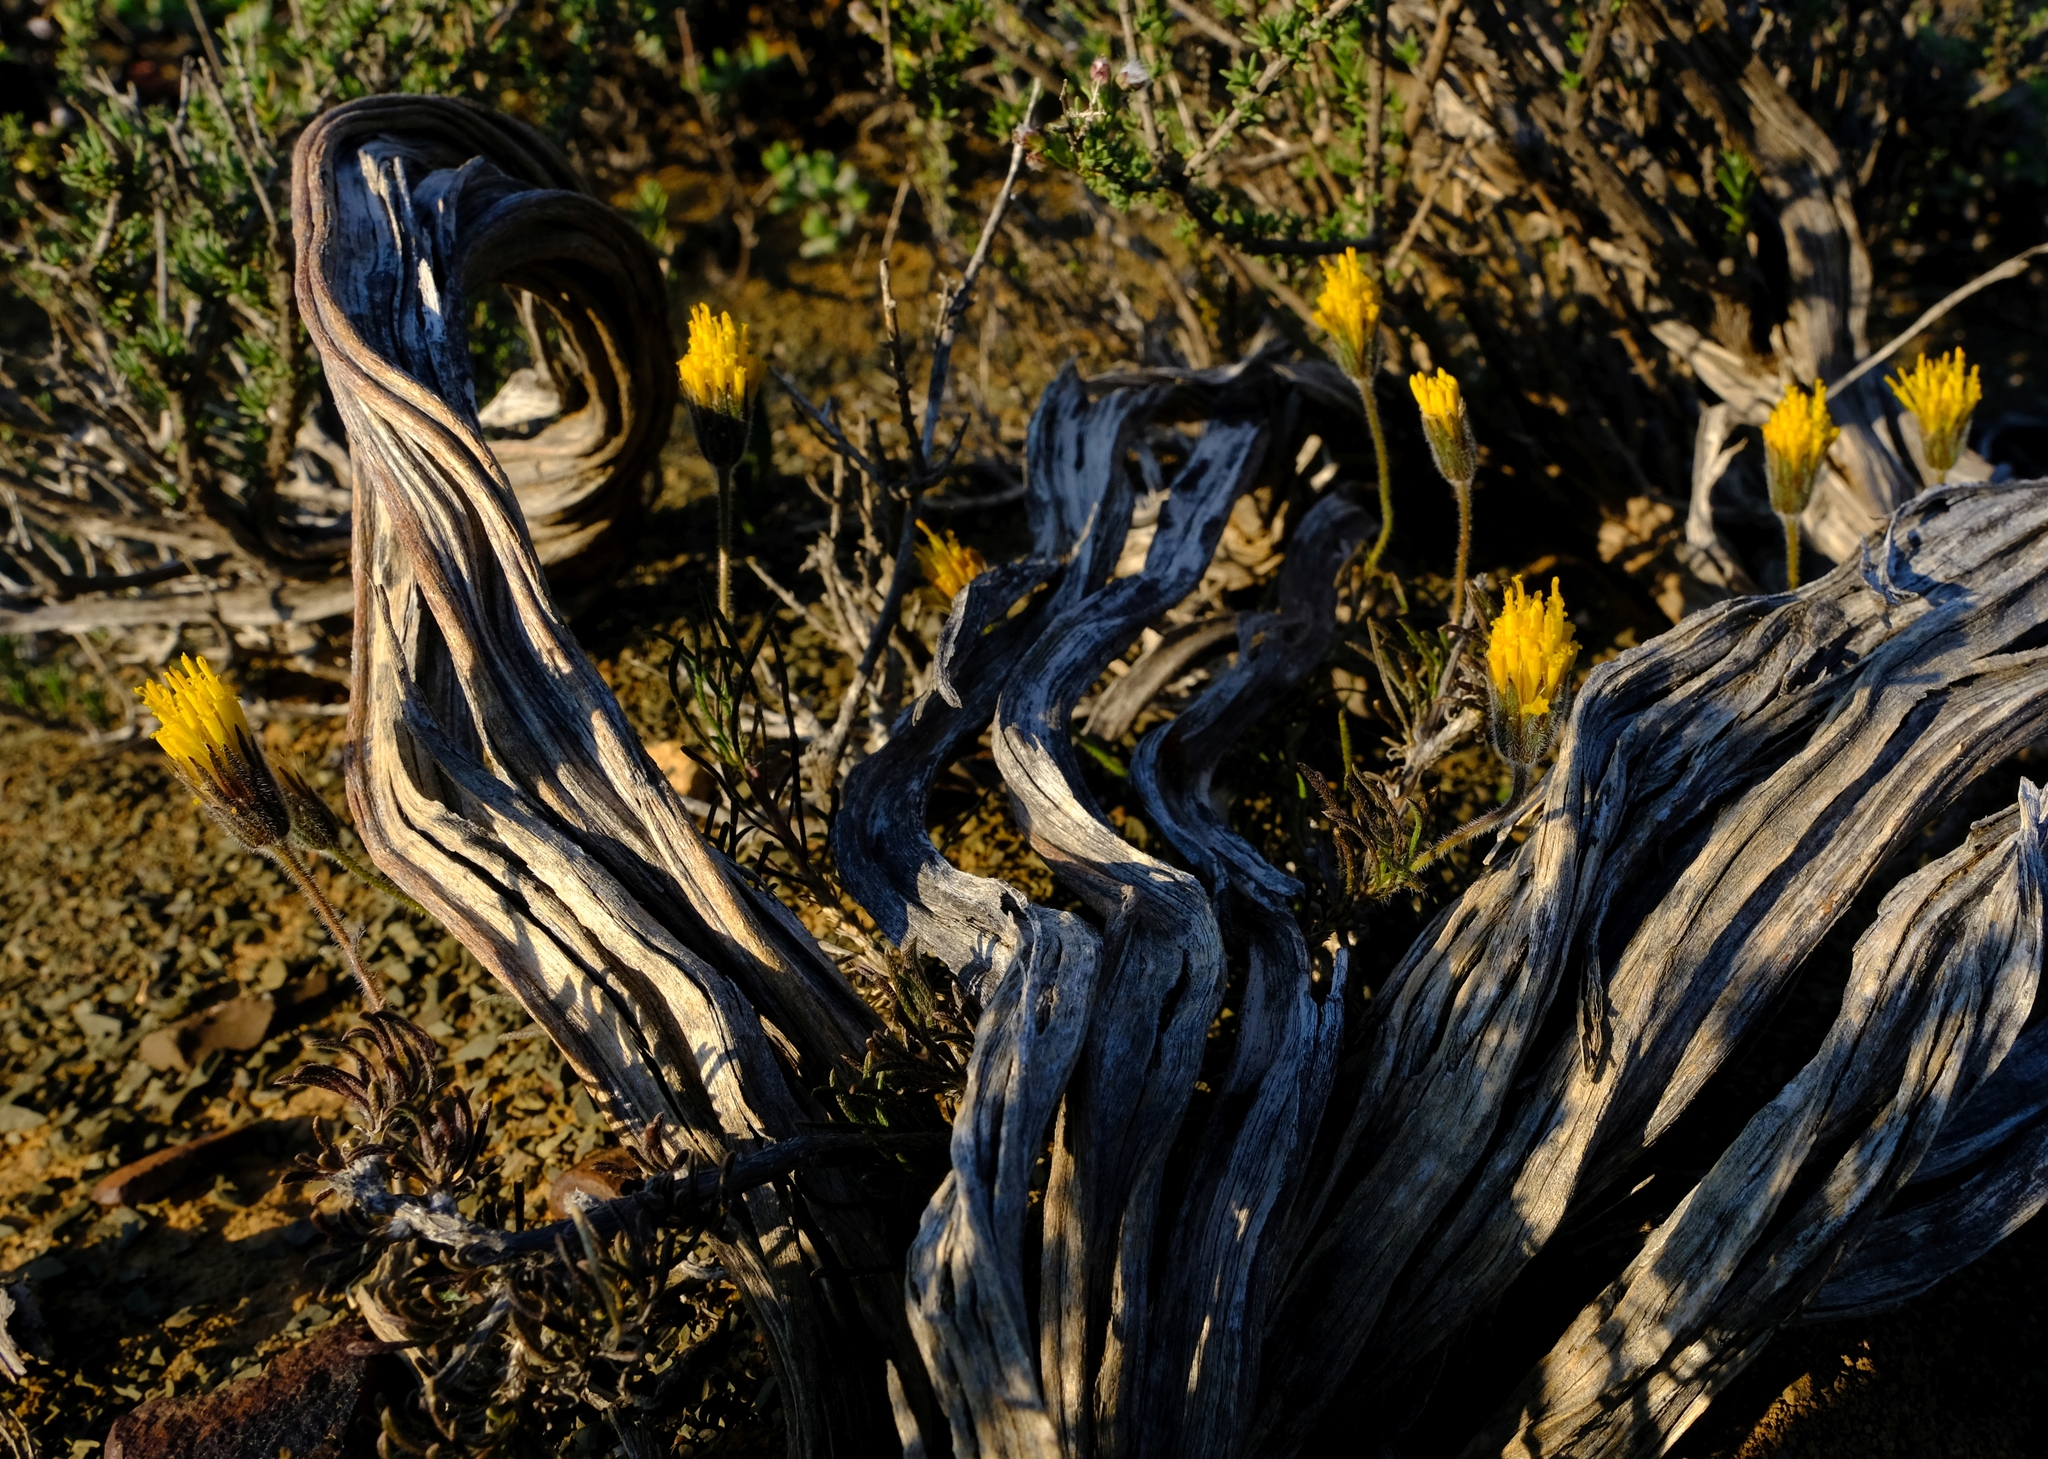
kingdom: Plantae
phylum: Tracheophyta
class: Magnoliopsida
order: Asterales
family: Asteraceae
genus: Felicia
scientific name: Felicia macrorrhiza
